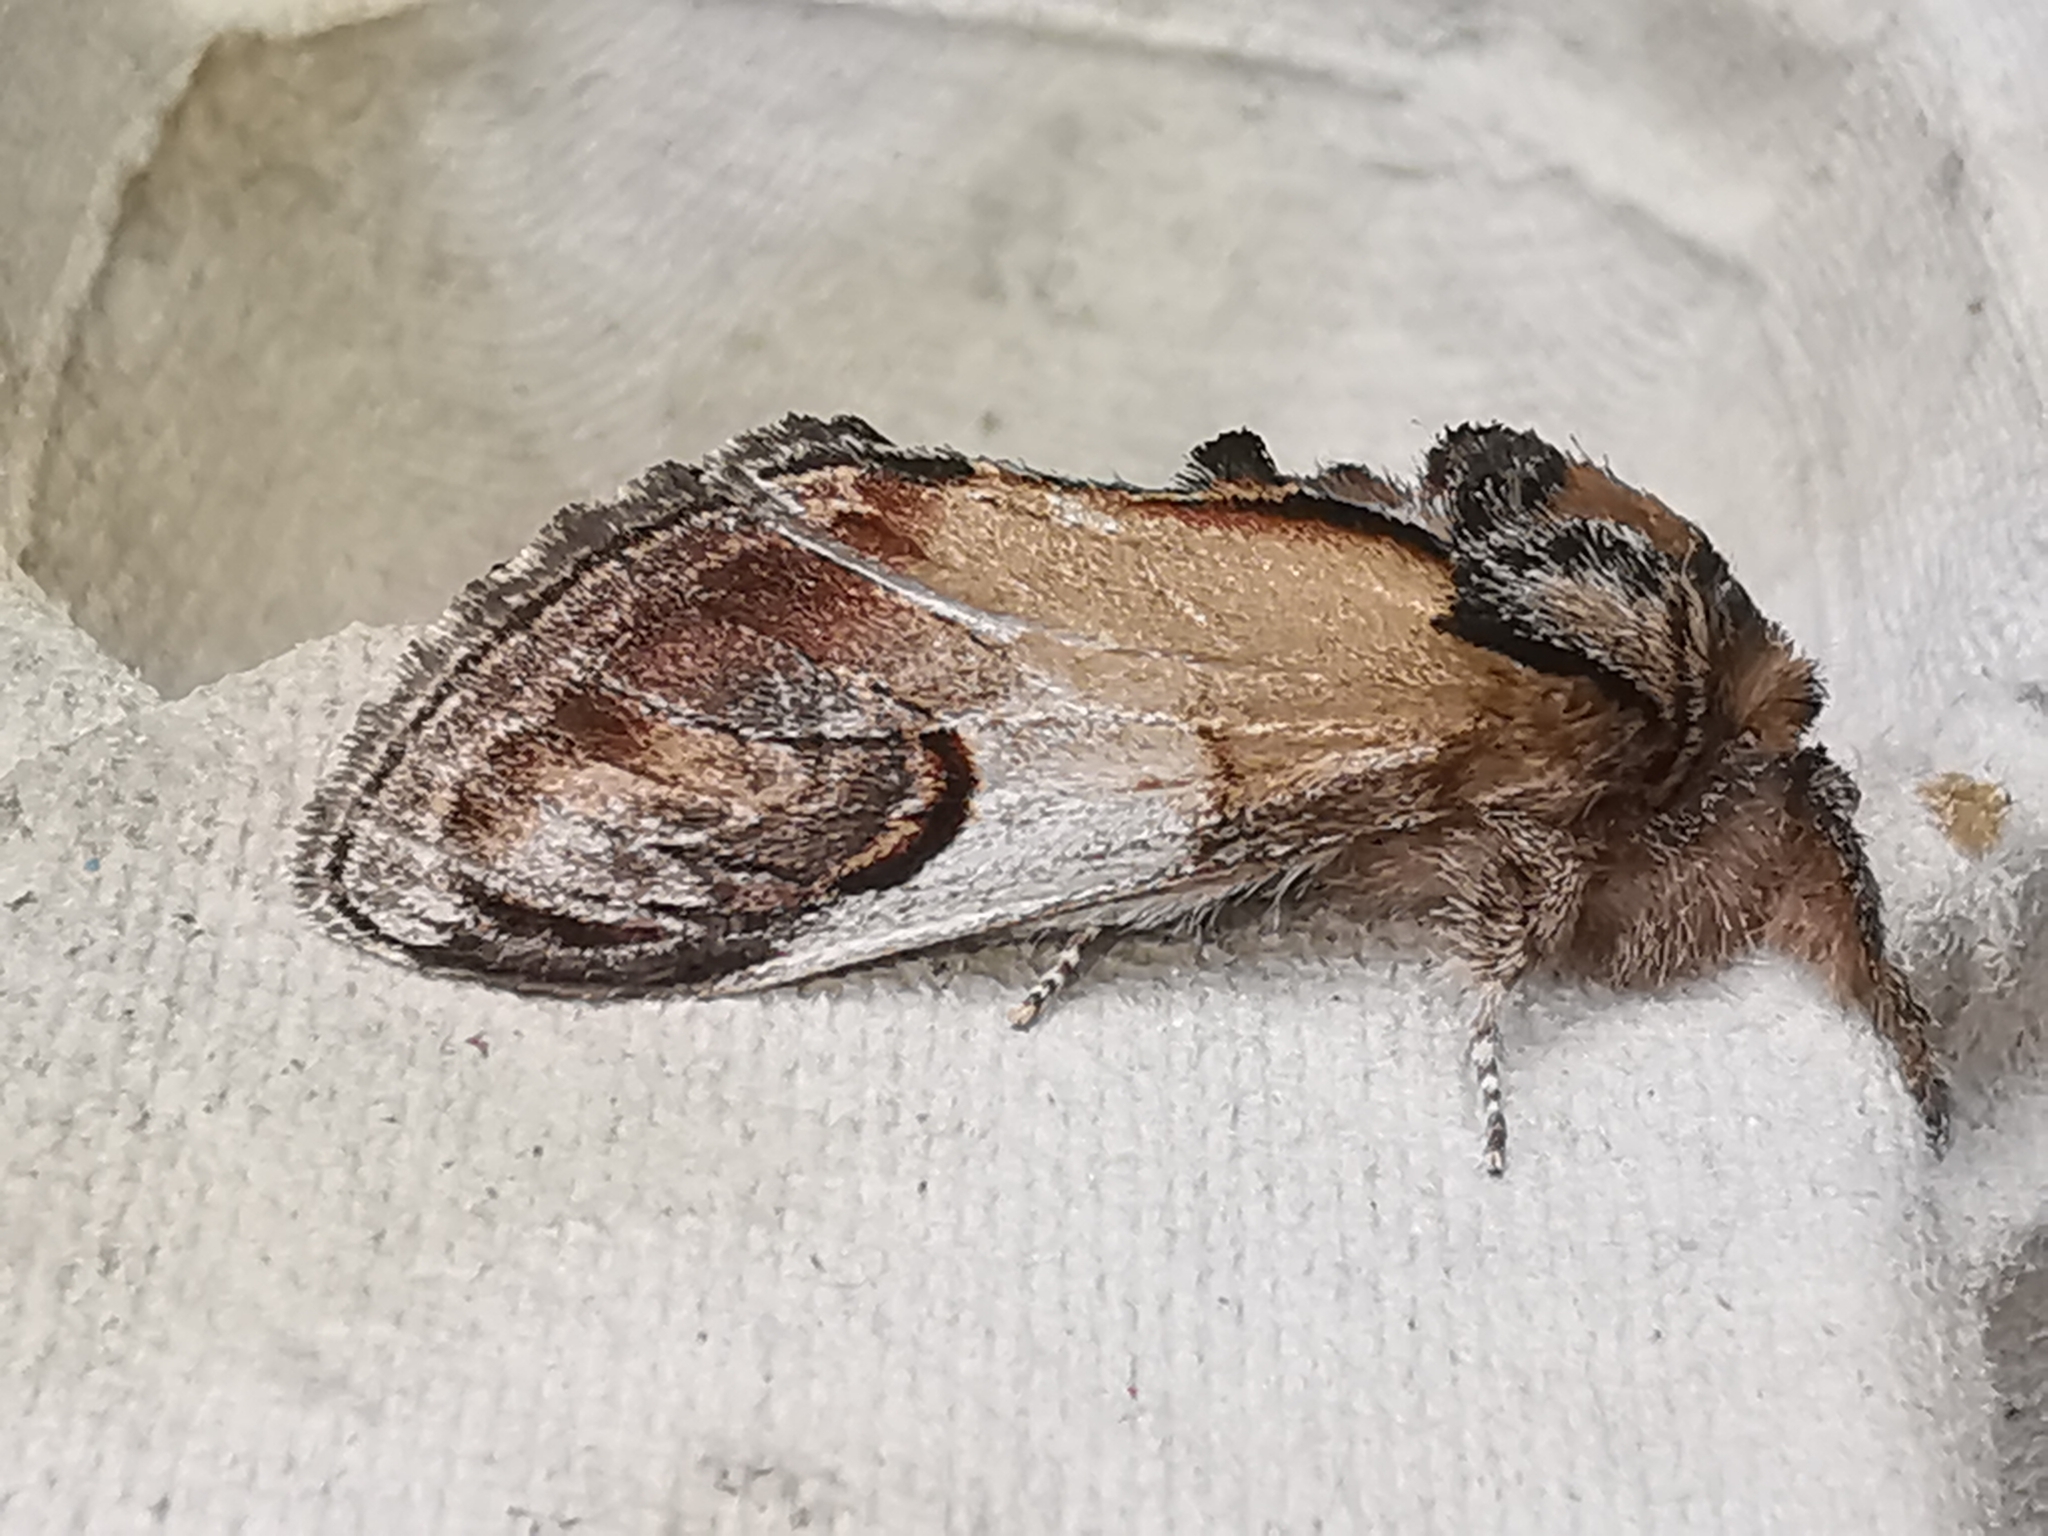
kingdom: Animalia
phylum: Arthropoda
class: Insecta
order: Lepidoptera
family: Notodontidae
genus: Notodonta
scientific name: Notodonta ziczac
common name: Pebble prominent
